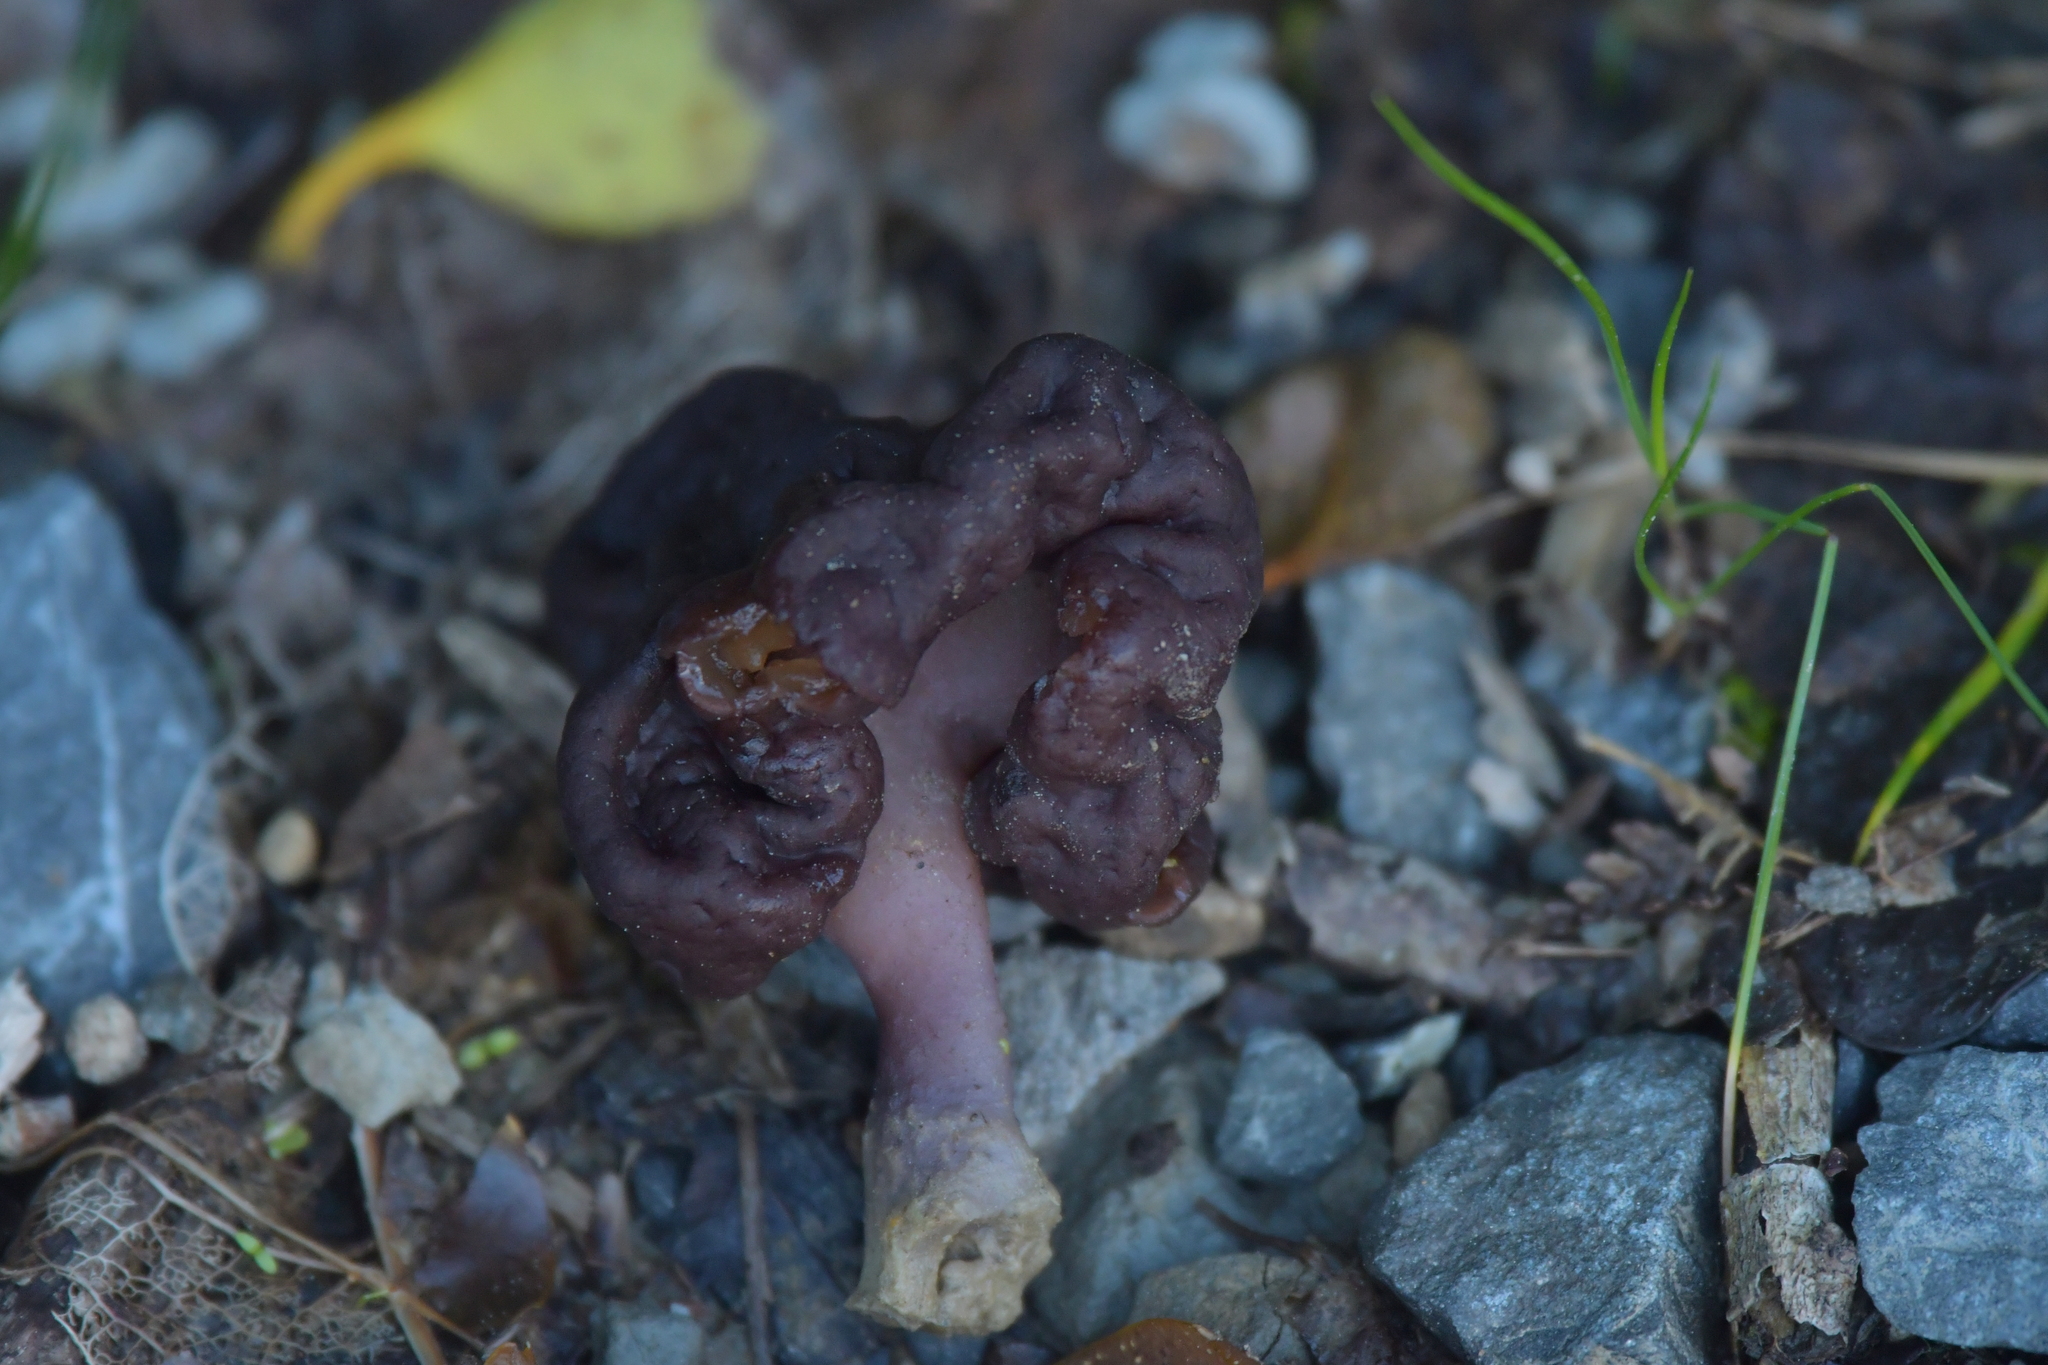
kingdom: Fungi
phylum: Ascomycota
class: Pezizomycetes
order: Pezizales
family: Discinaceae
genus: Gyromitra
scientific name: Gyromitra tasmanica
